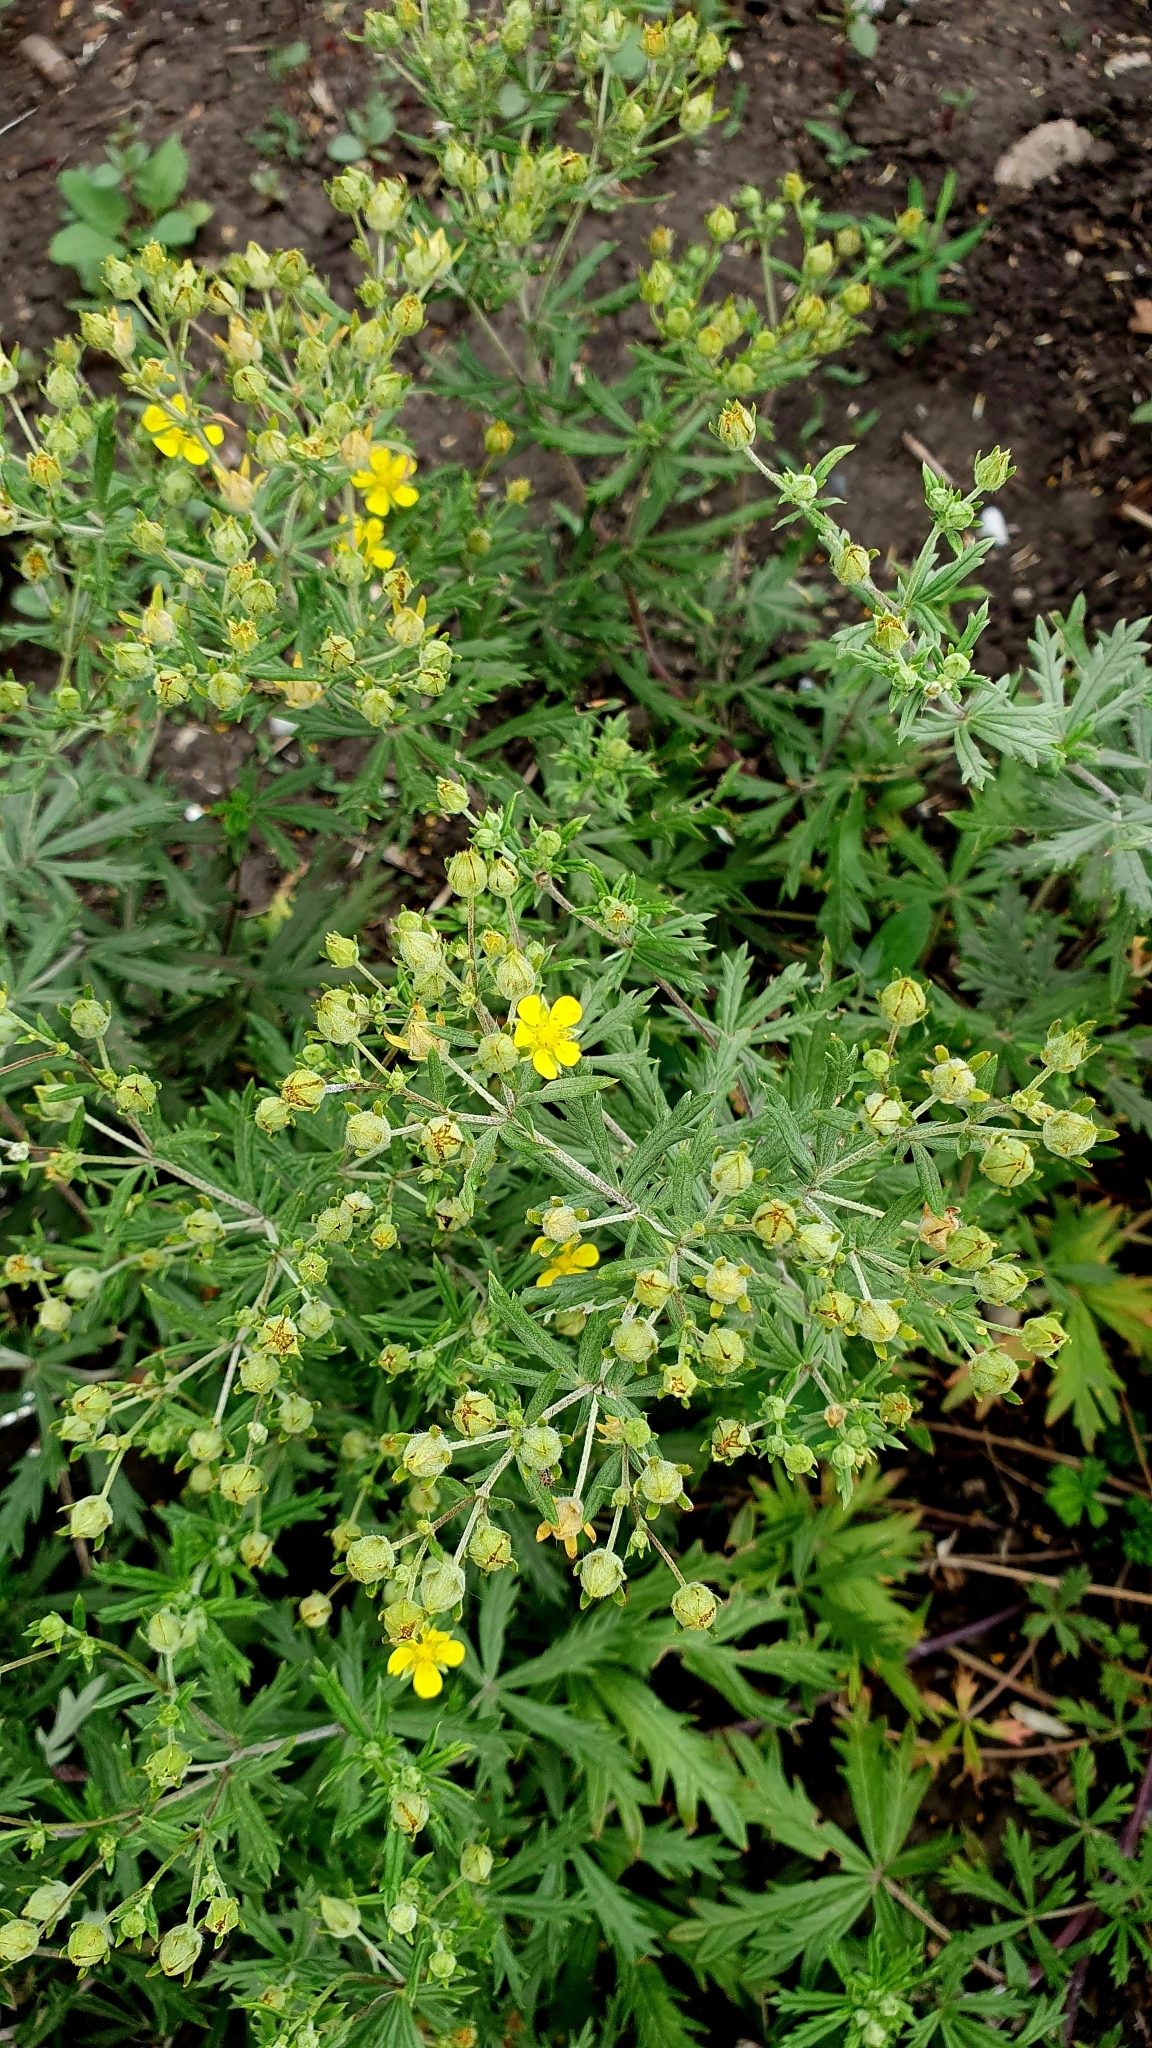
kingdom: Plantae
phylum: Tracheophyta
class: Magnoliopsida
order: Rosales
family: Rosaceae
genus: Potentilla
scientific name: Potentilla argentea
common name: Hoary cinquefoil
